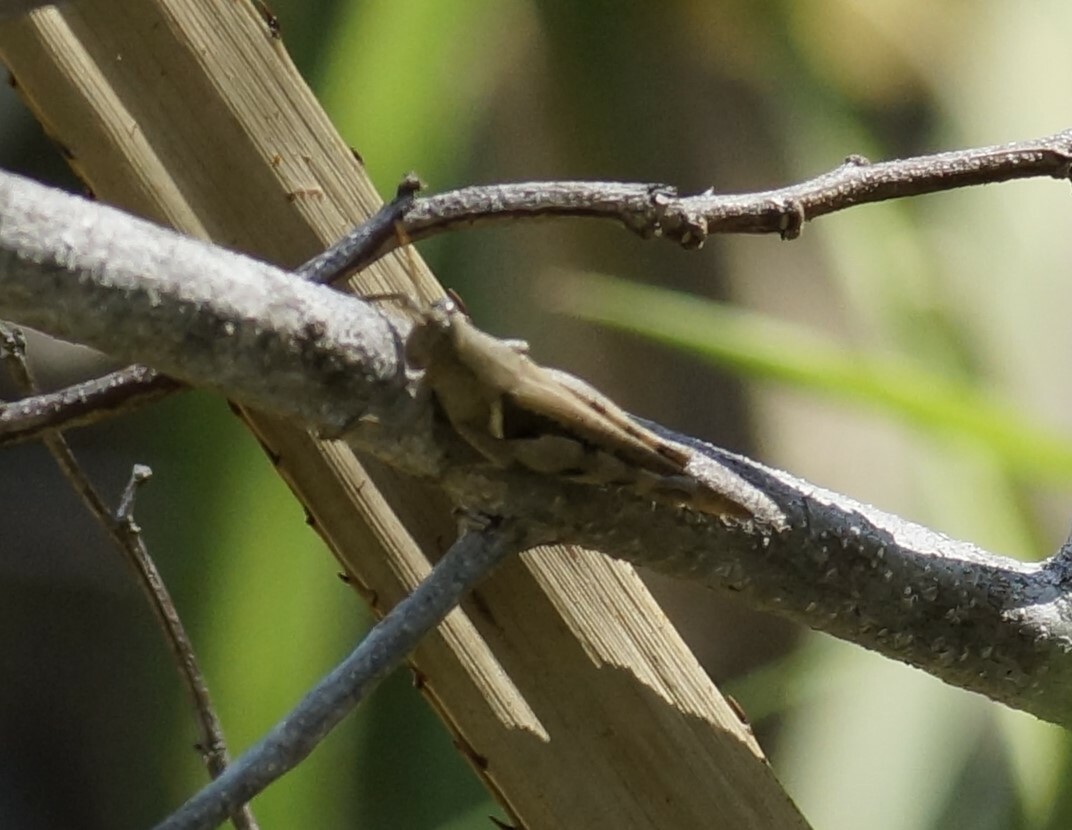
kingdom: Animalia
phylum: Arthropoda
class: Insecta
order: Orthoptera
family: Acrididae
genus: Stenocatantops
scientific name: Stenocatantops angustifrons
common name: Common tropical sharptail
